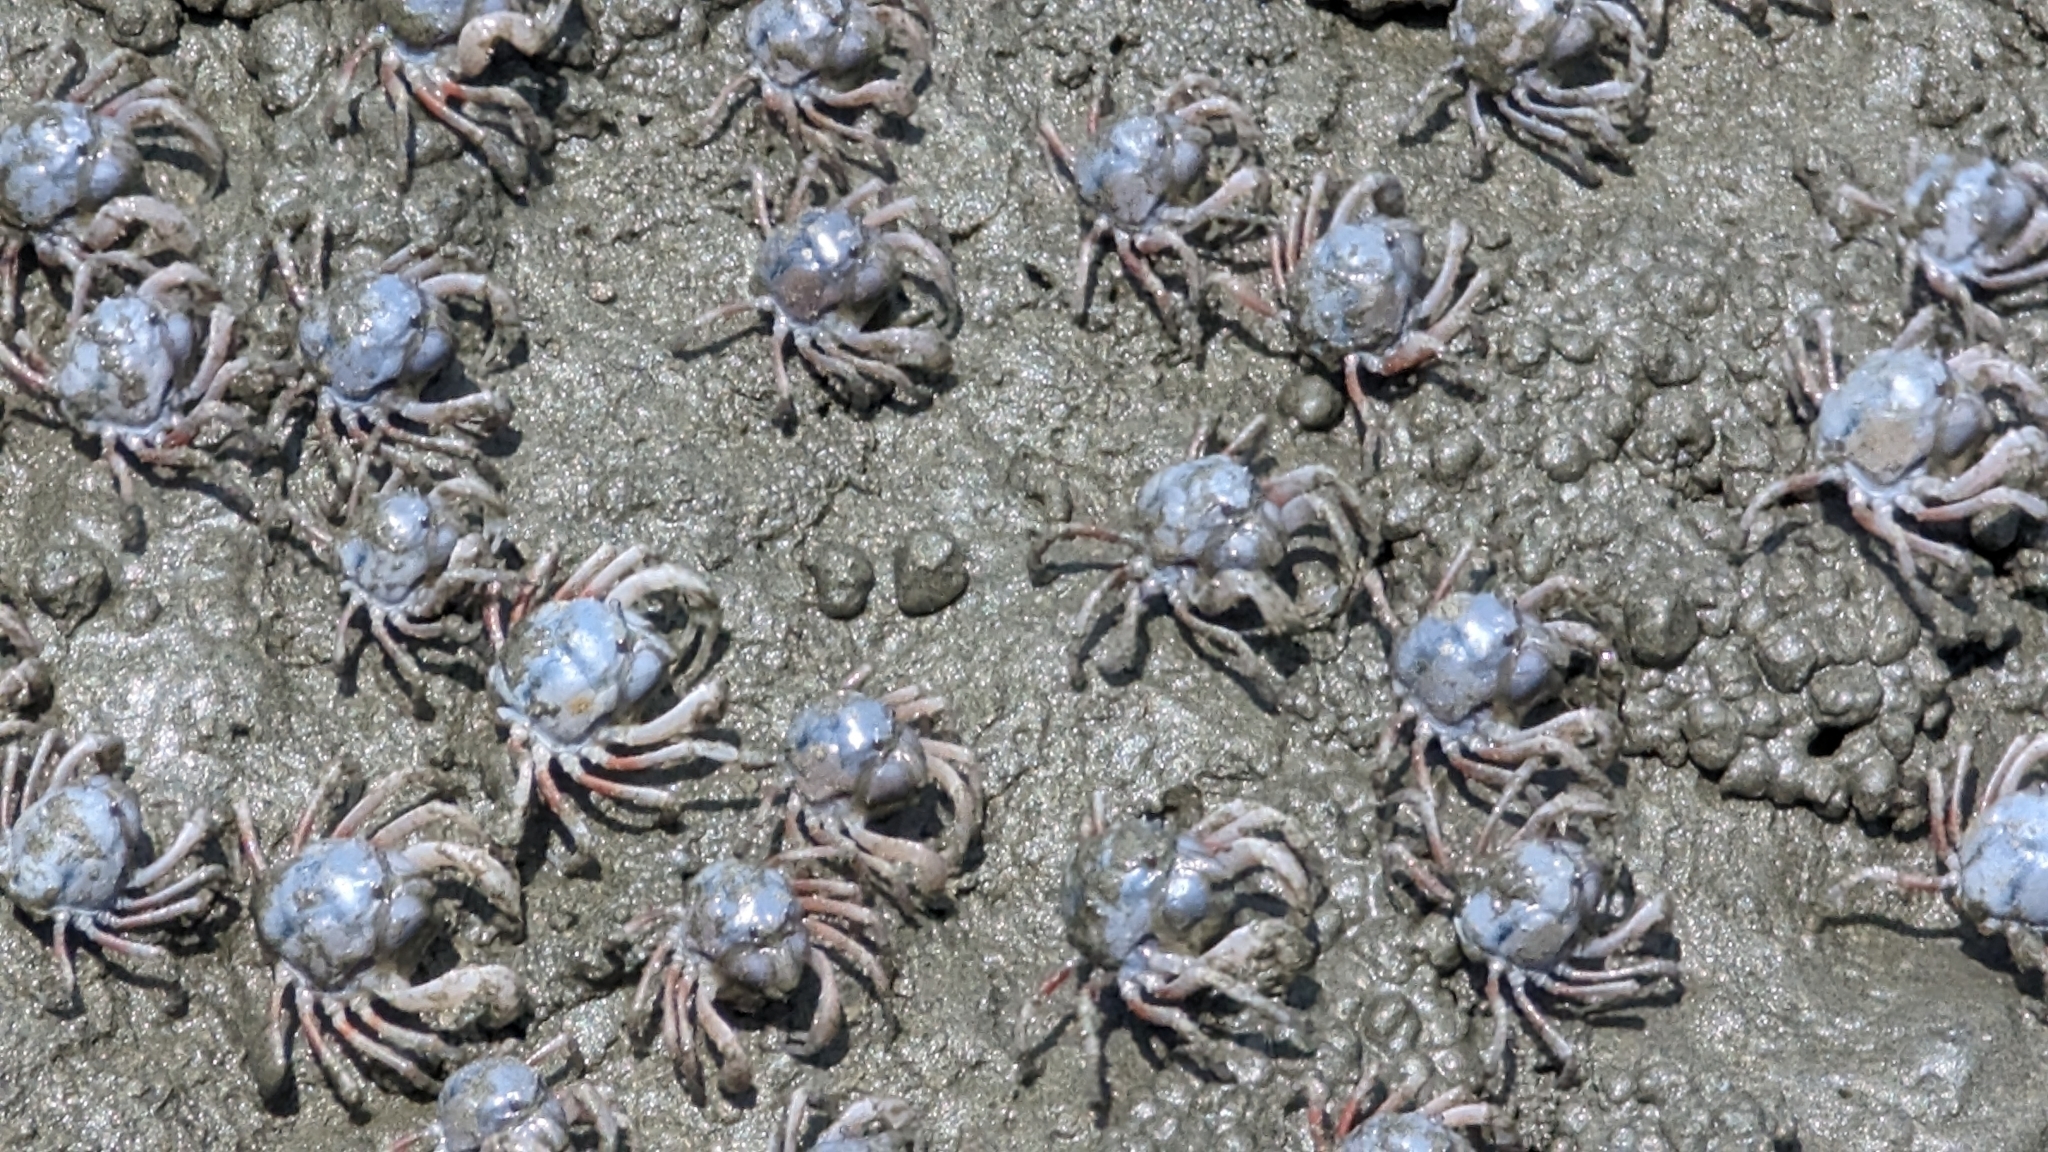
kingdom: Animalia
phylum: Arthropoda
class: Malacostraca
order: Decapoda
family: Mictyridae
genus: Mictyris
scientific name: Mictyris brevidactylus
